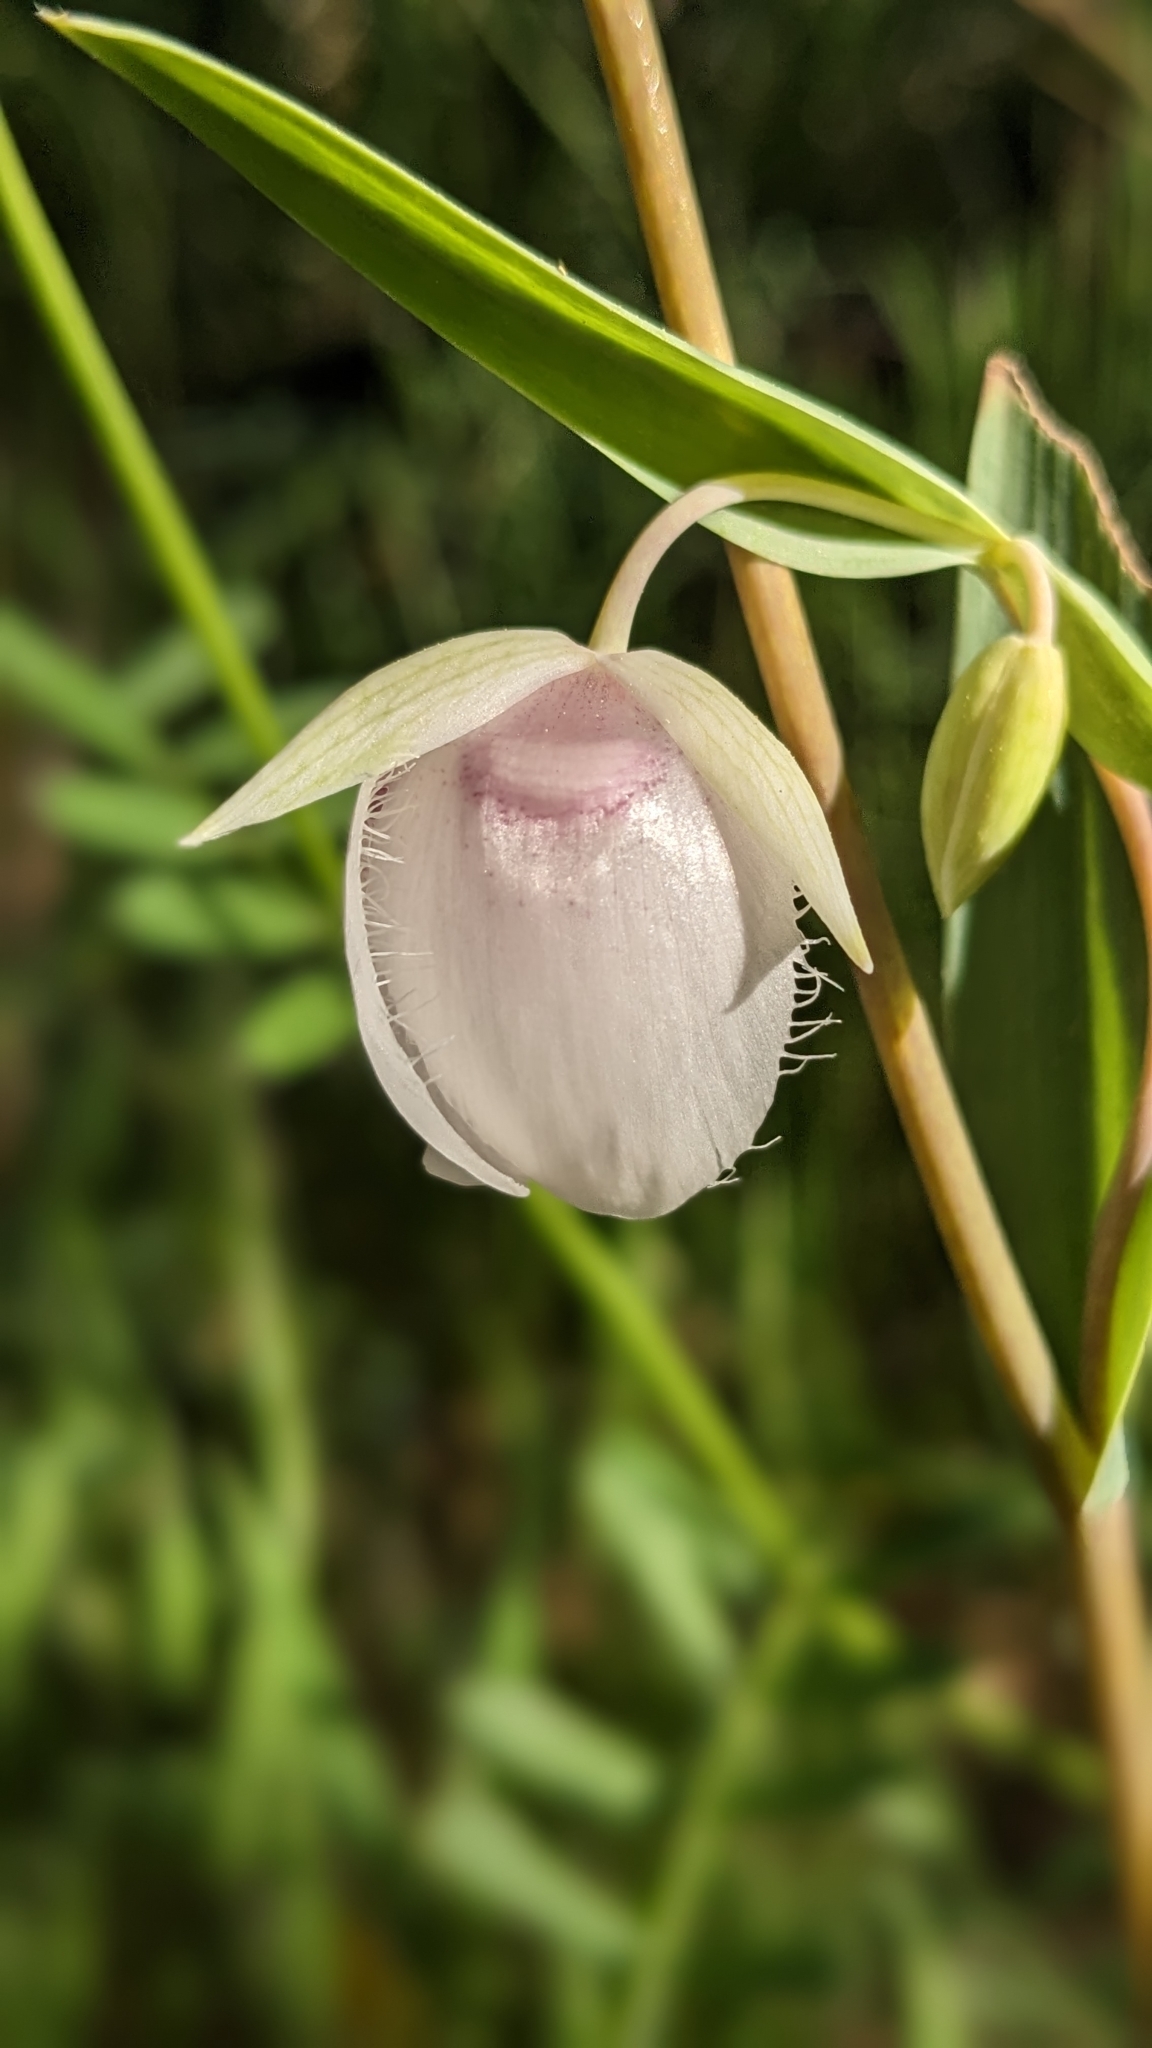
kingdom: Plantae
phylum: Tracheophyta
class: Liliopsida
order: Liliales
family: Liliaceae
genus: Calochortus
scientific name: Calochortus albus
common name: Fairy-lantern
